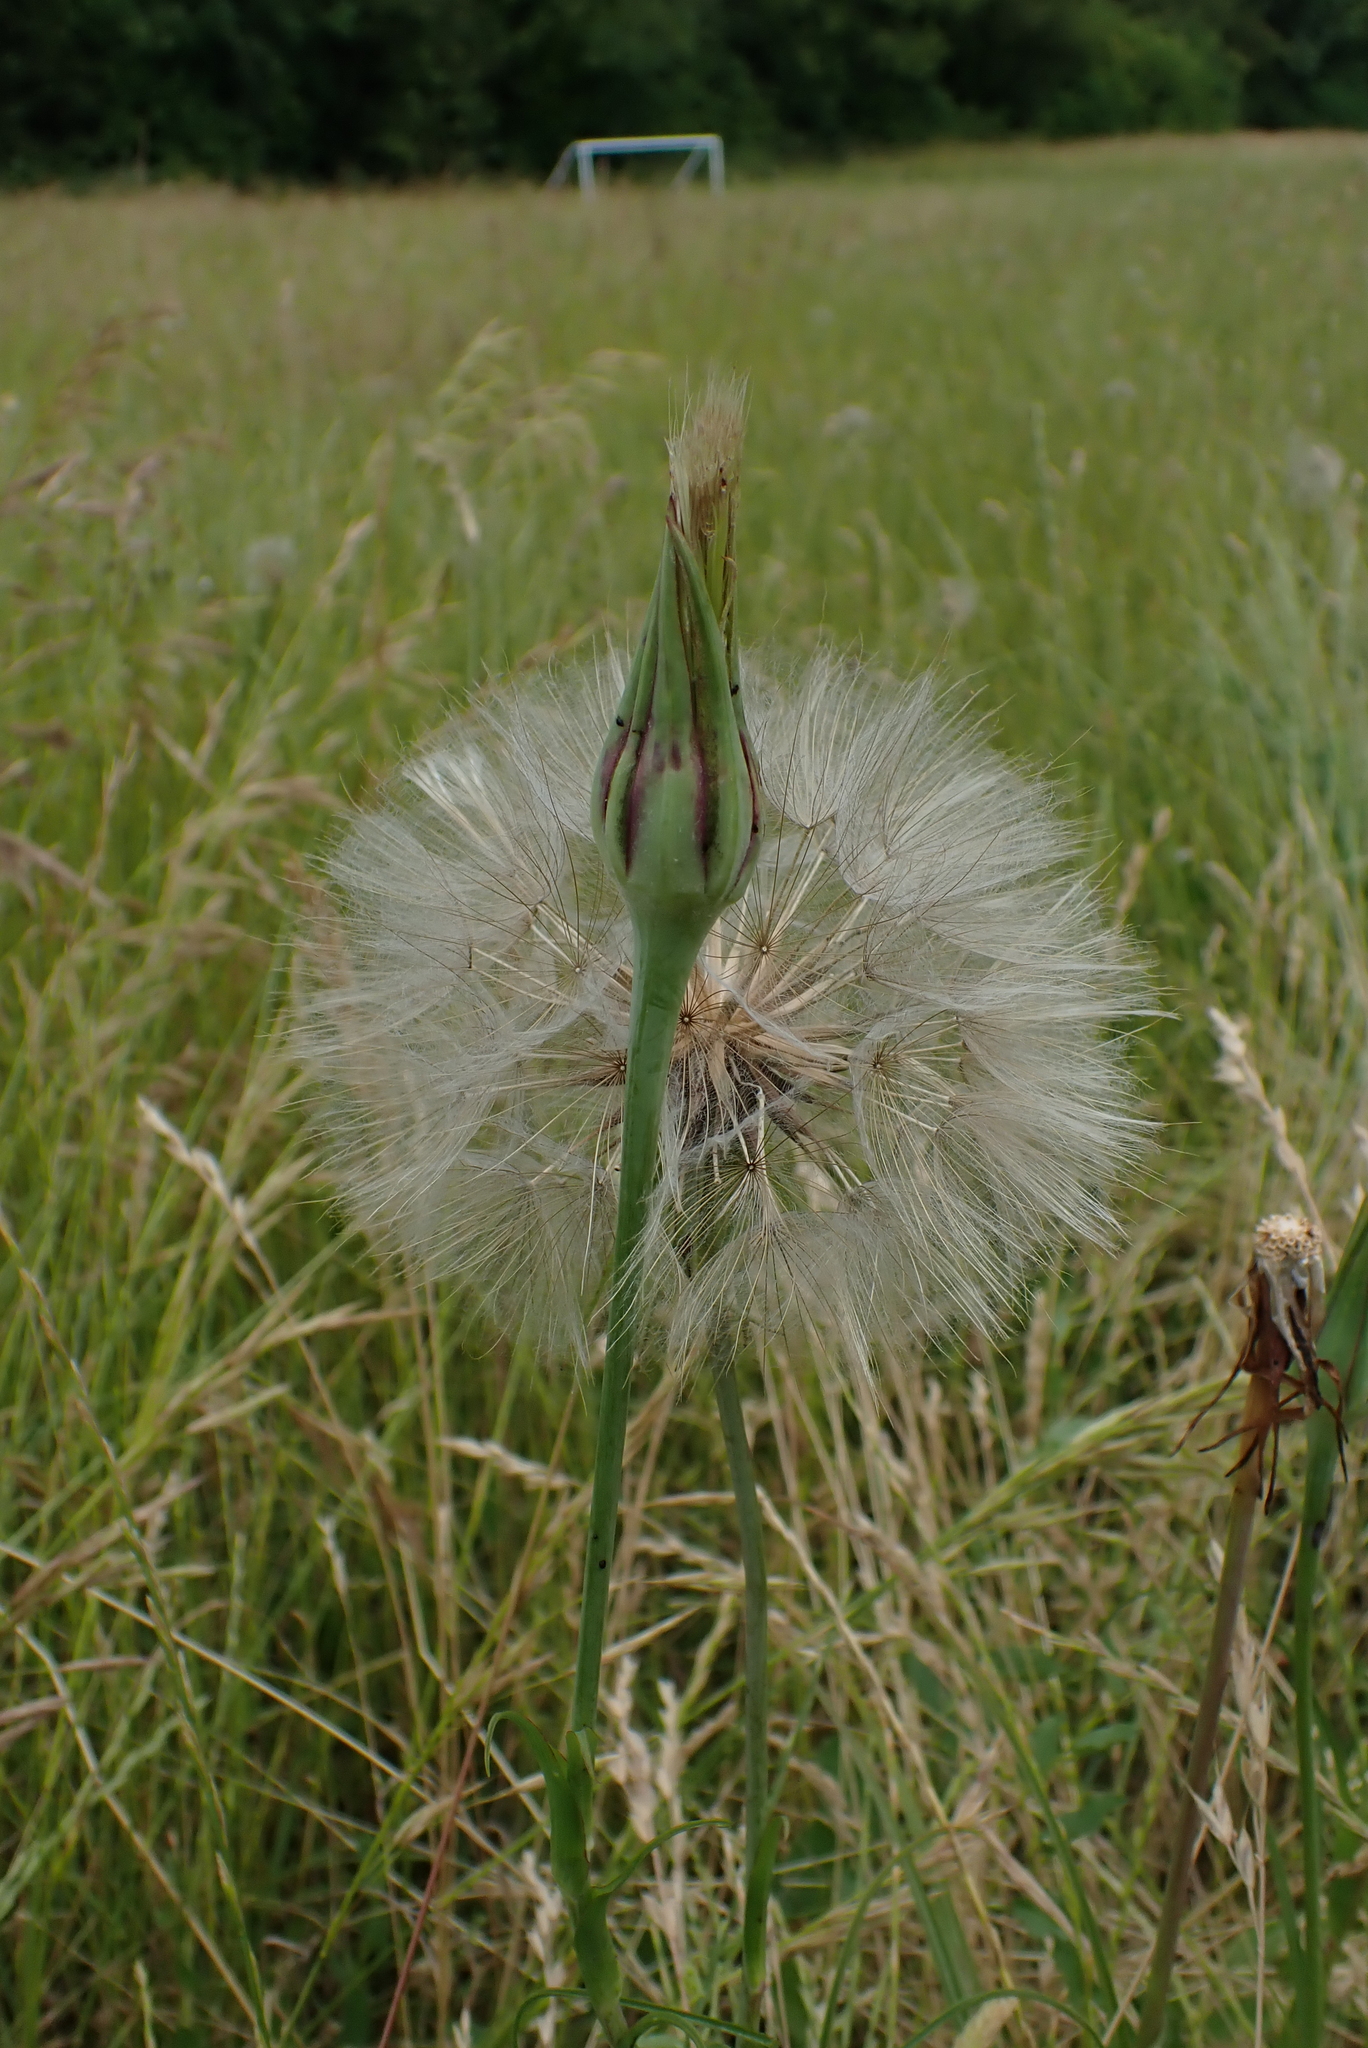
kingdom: Plantae
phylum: Tracheophyta
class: Magnoliopsida
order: Asterales
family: Asteraceae
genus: Tragopogon
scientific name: Tragopogon pratensis
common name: Goat's-beard
